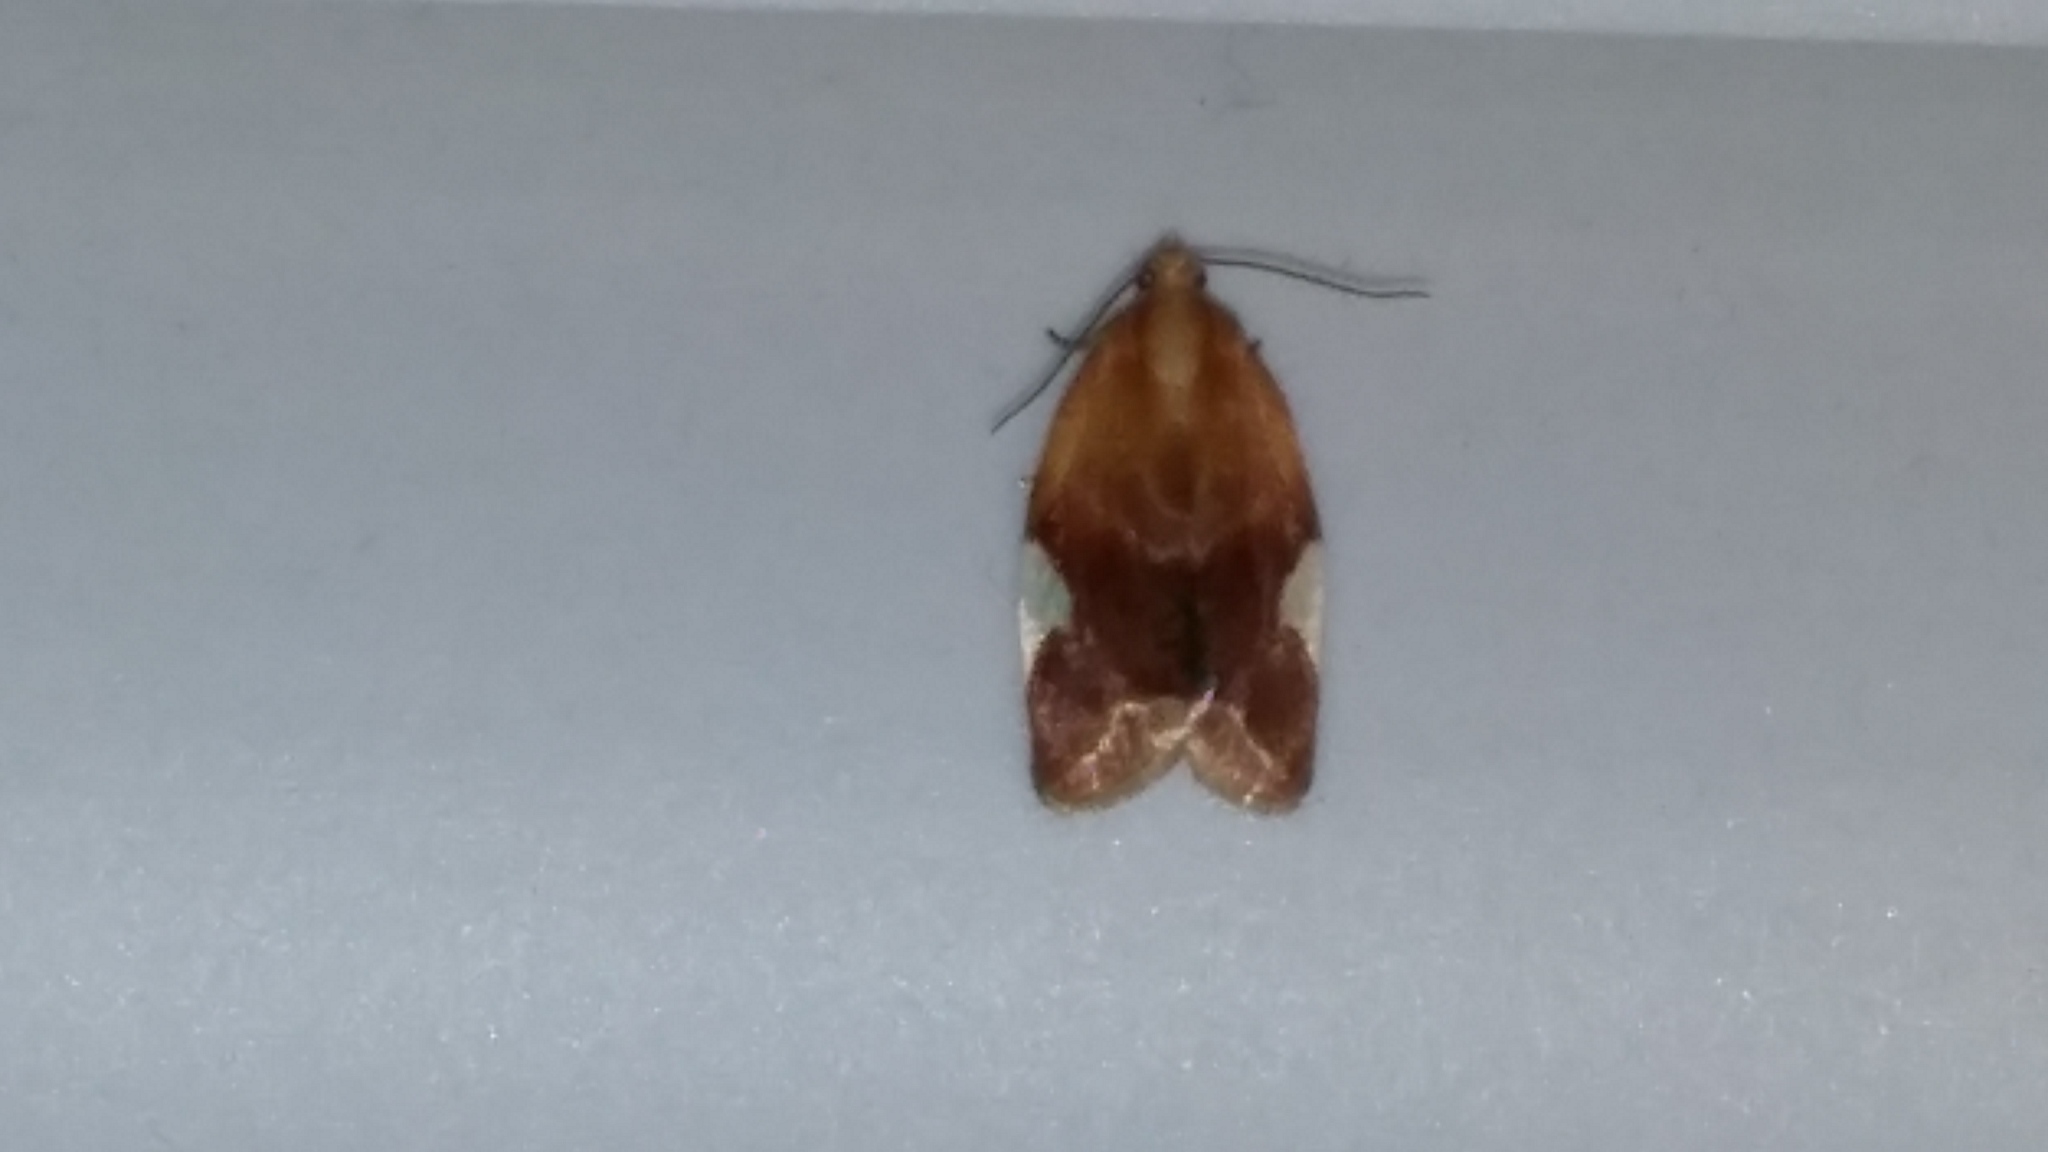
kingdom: Animalia
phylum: Arthropoda
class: Insecta
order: Lepidoptera
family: Tortricidae
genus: Clepsis
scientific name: Clepsis persicana
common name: White triangle tortrix
